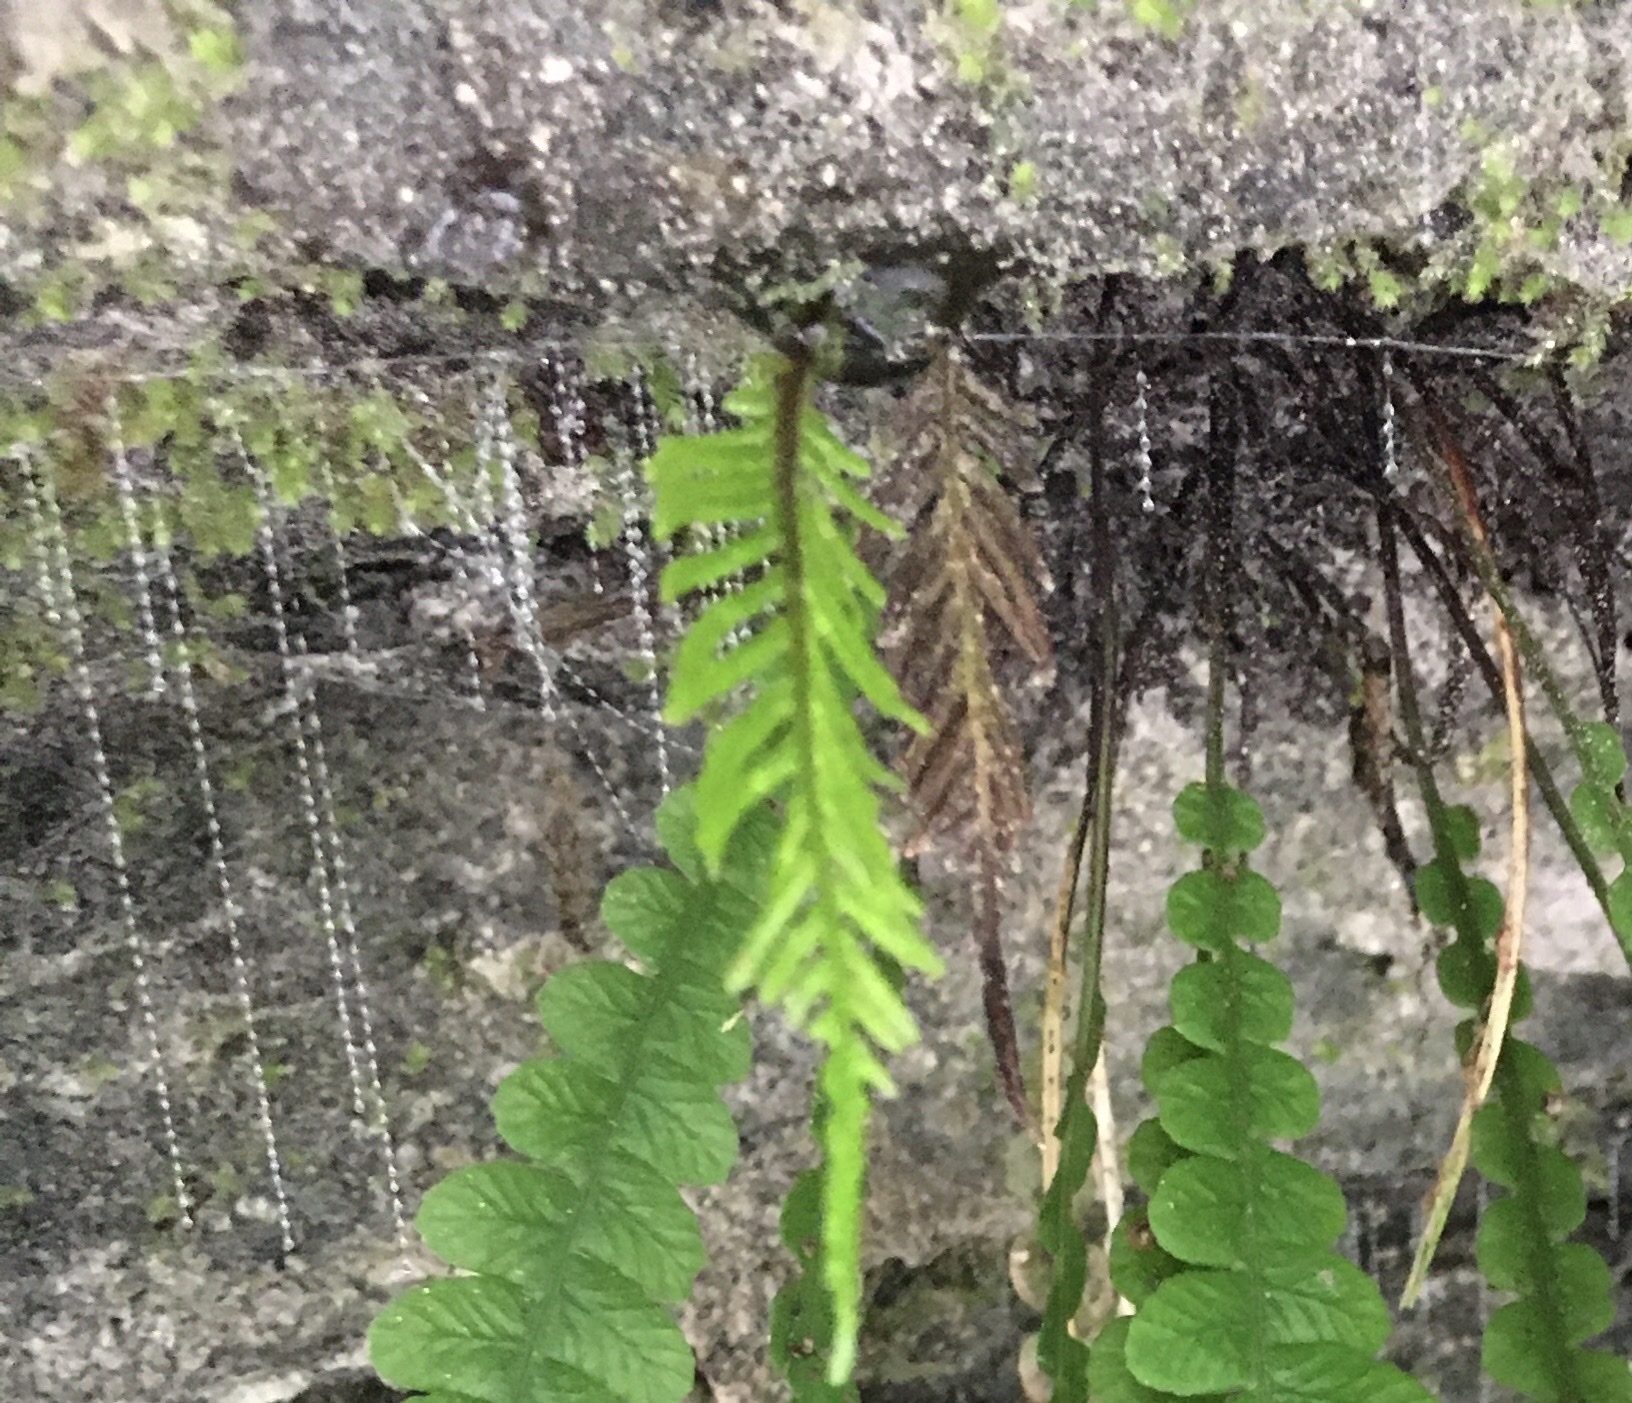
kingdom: Animalia
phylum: Arthropoda
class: Insecta
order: Diptera
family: Keroplatidae
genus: Arachnocampa
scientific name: Arachnocampa luminosa
